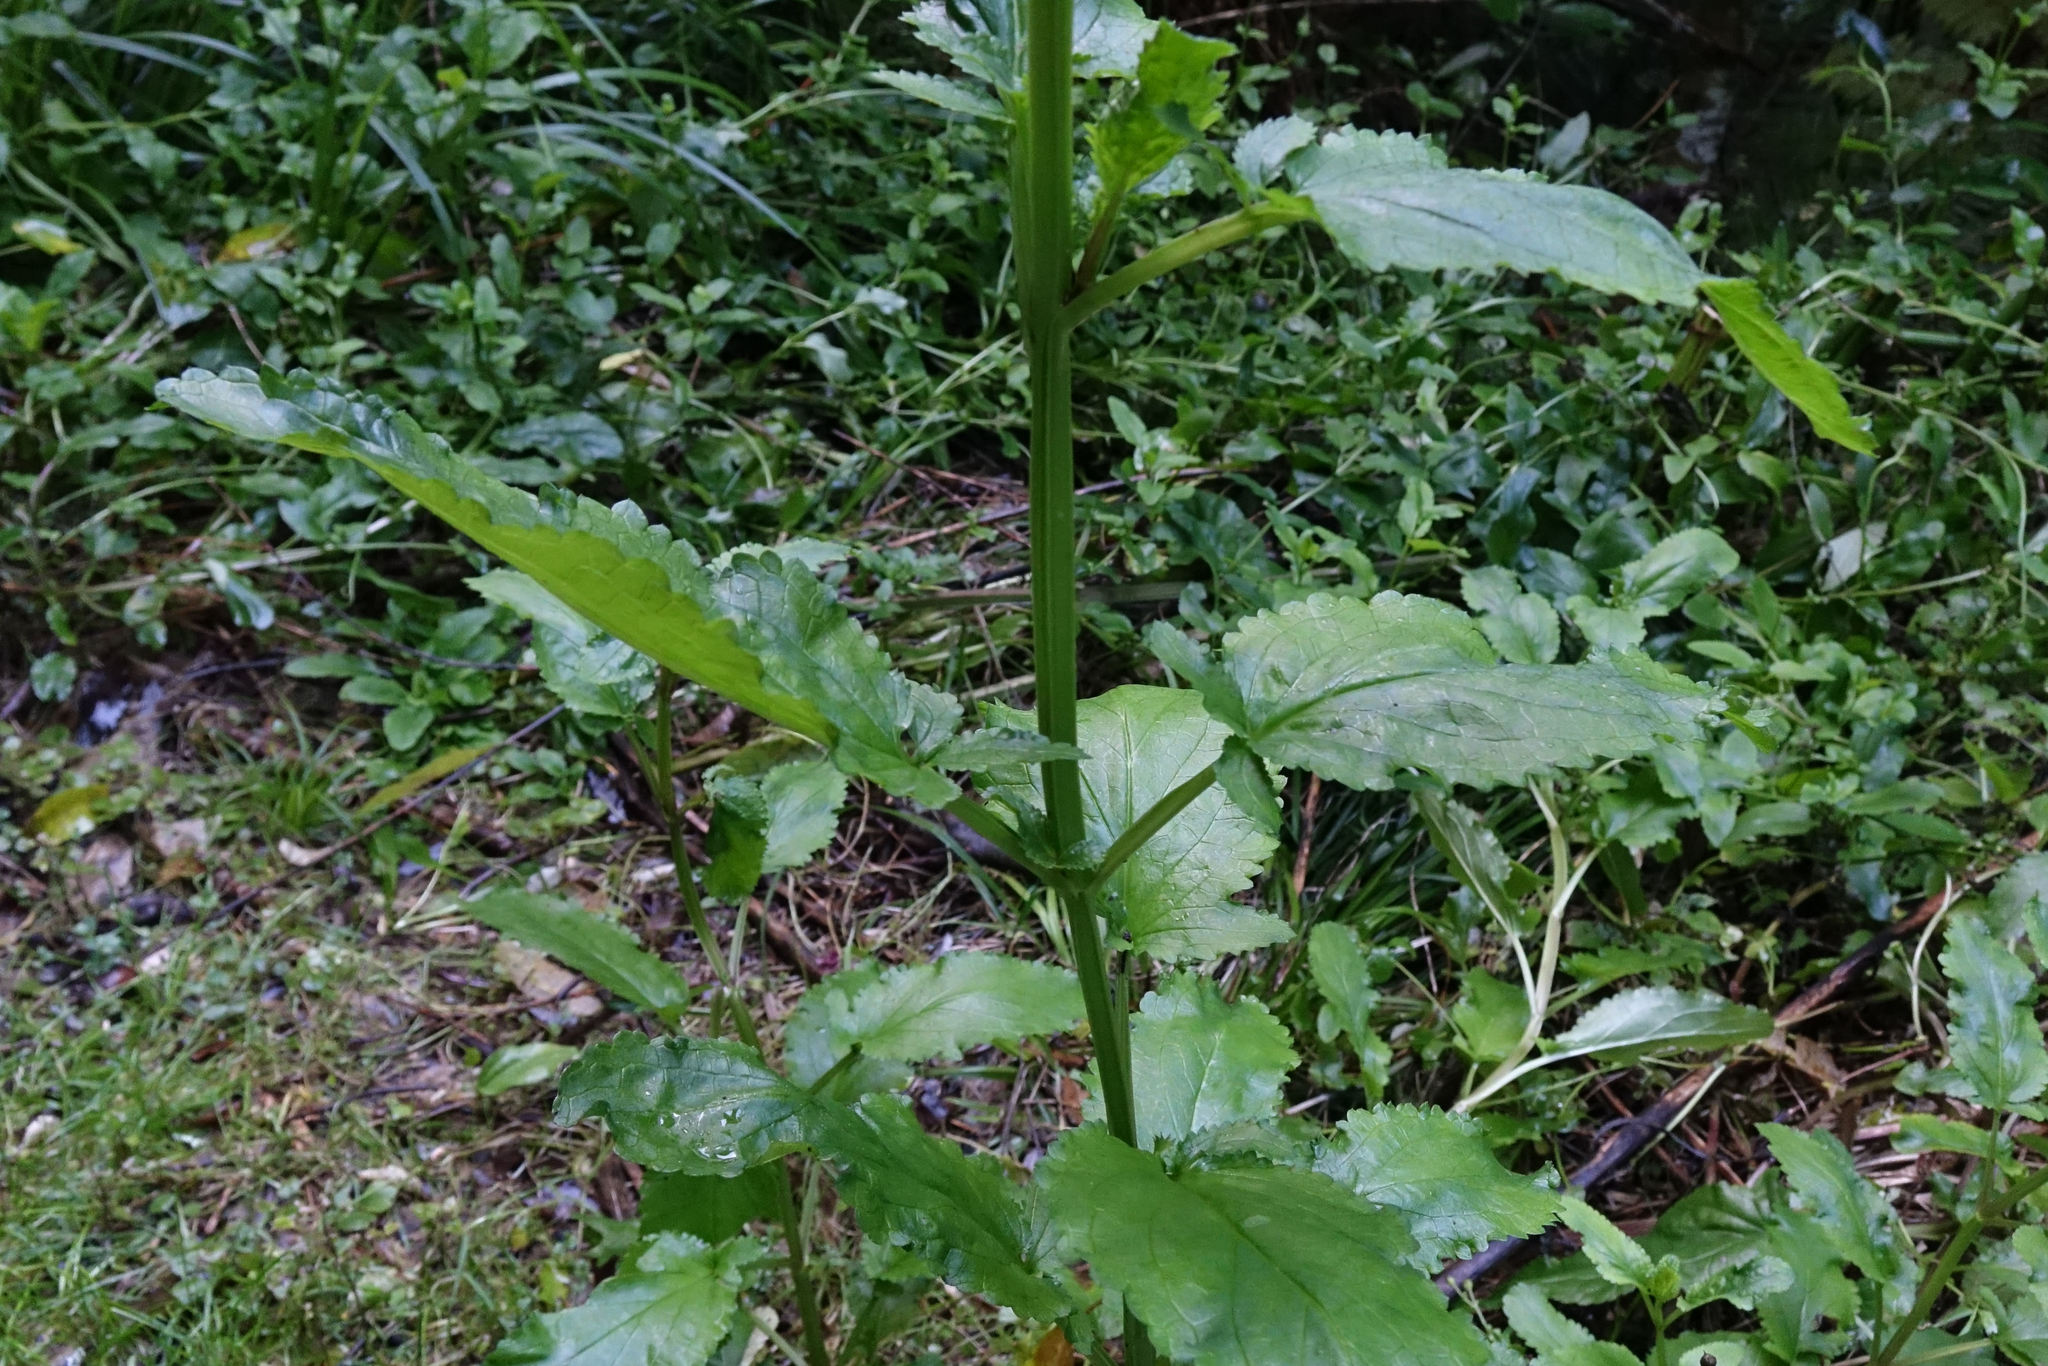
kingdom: Plantae
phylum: Tracheophyta
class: Magnoliopsida
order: Lamiales
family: Scrophulariaceae
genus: Scrophularia
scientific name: Scrophularia auriculata
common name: Water betony
